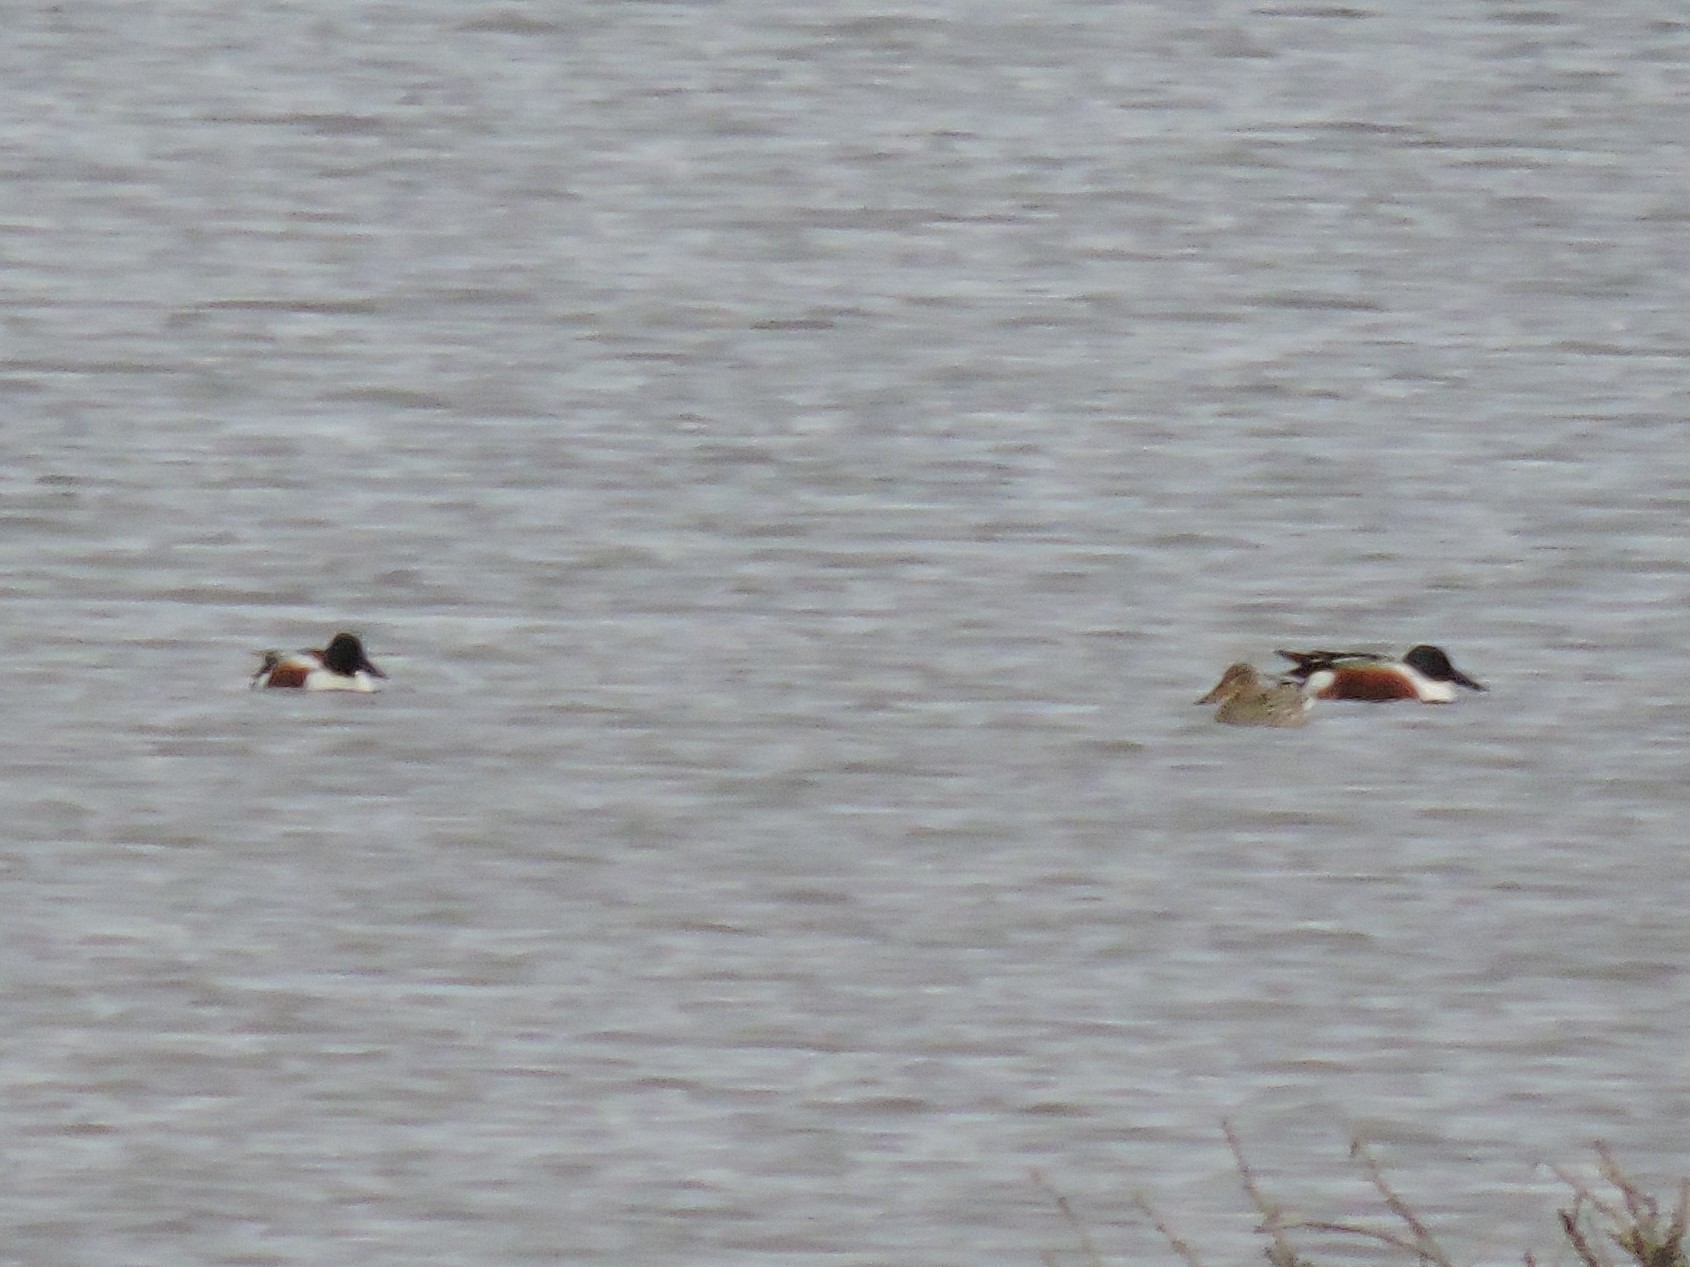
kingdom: Animalia
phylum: Chordata
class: Aves
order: Anseriformes
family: Anatidae
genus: Spatula
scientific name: Spatula clypeata
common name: Northern shoveler
